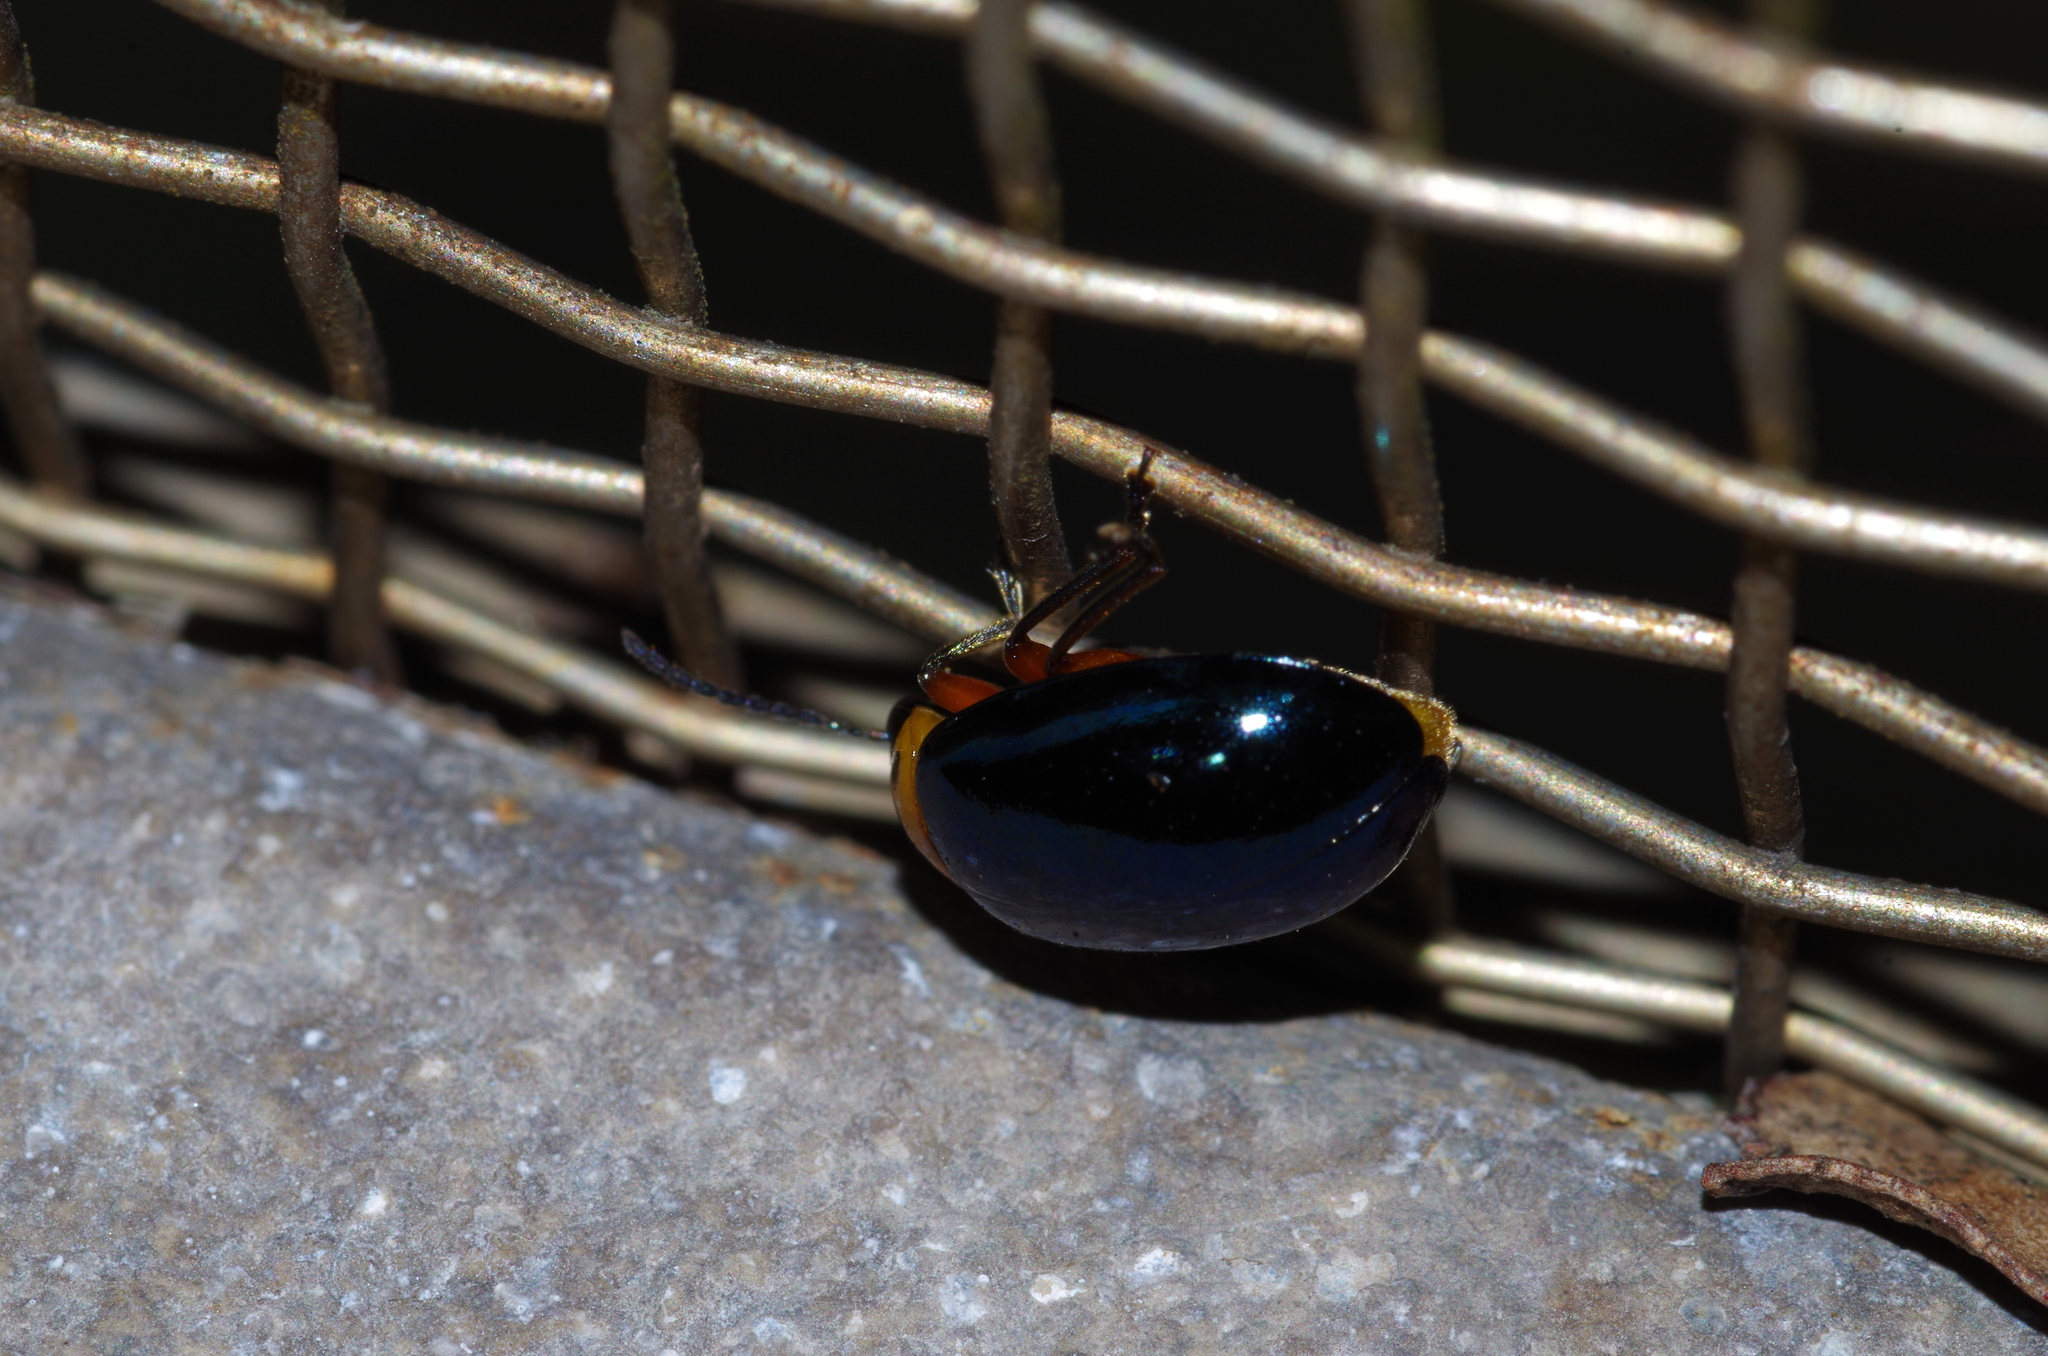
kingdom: Animalia
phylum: Arthropoda
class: Insecta
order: Coleoptera
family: Chrysomelidae
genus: Morphosphaera
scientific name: Morphosphaera caerulea
